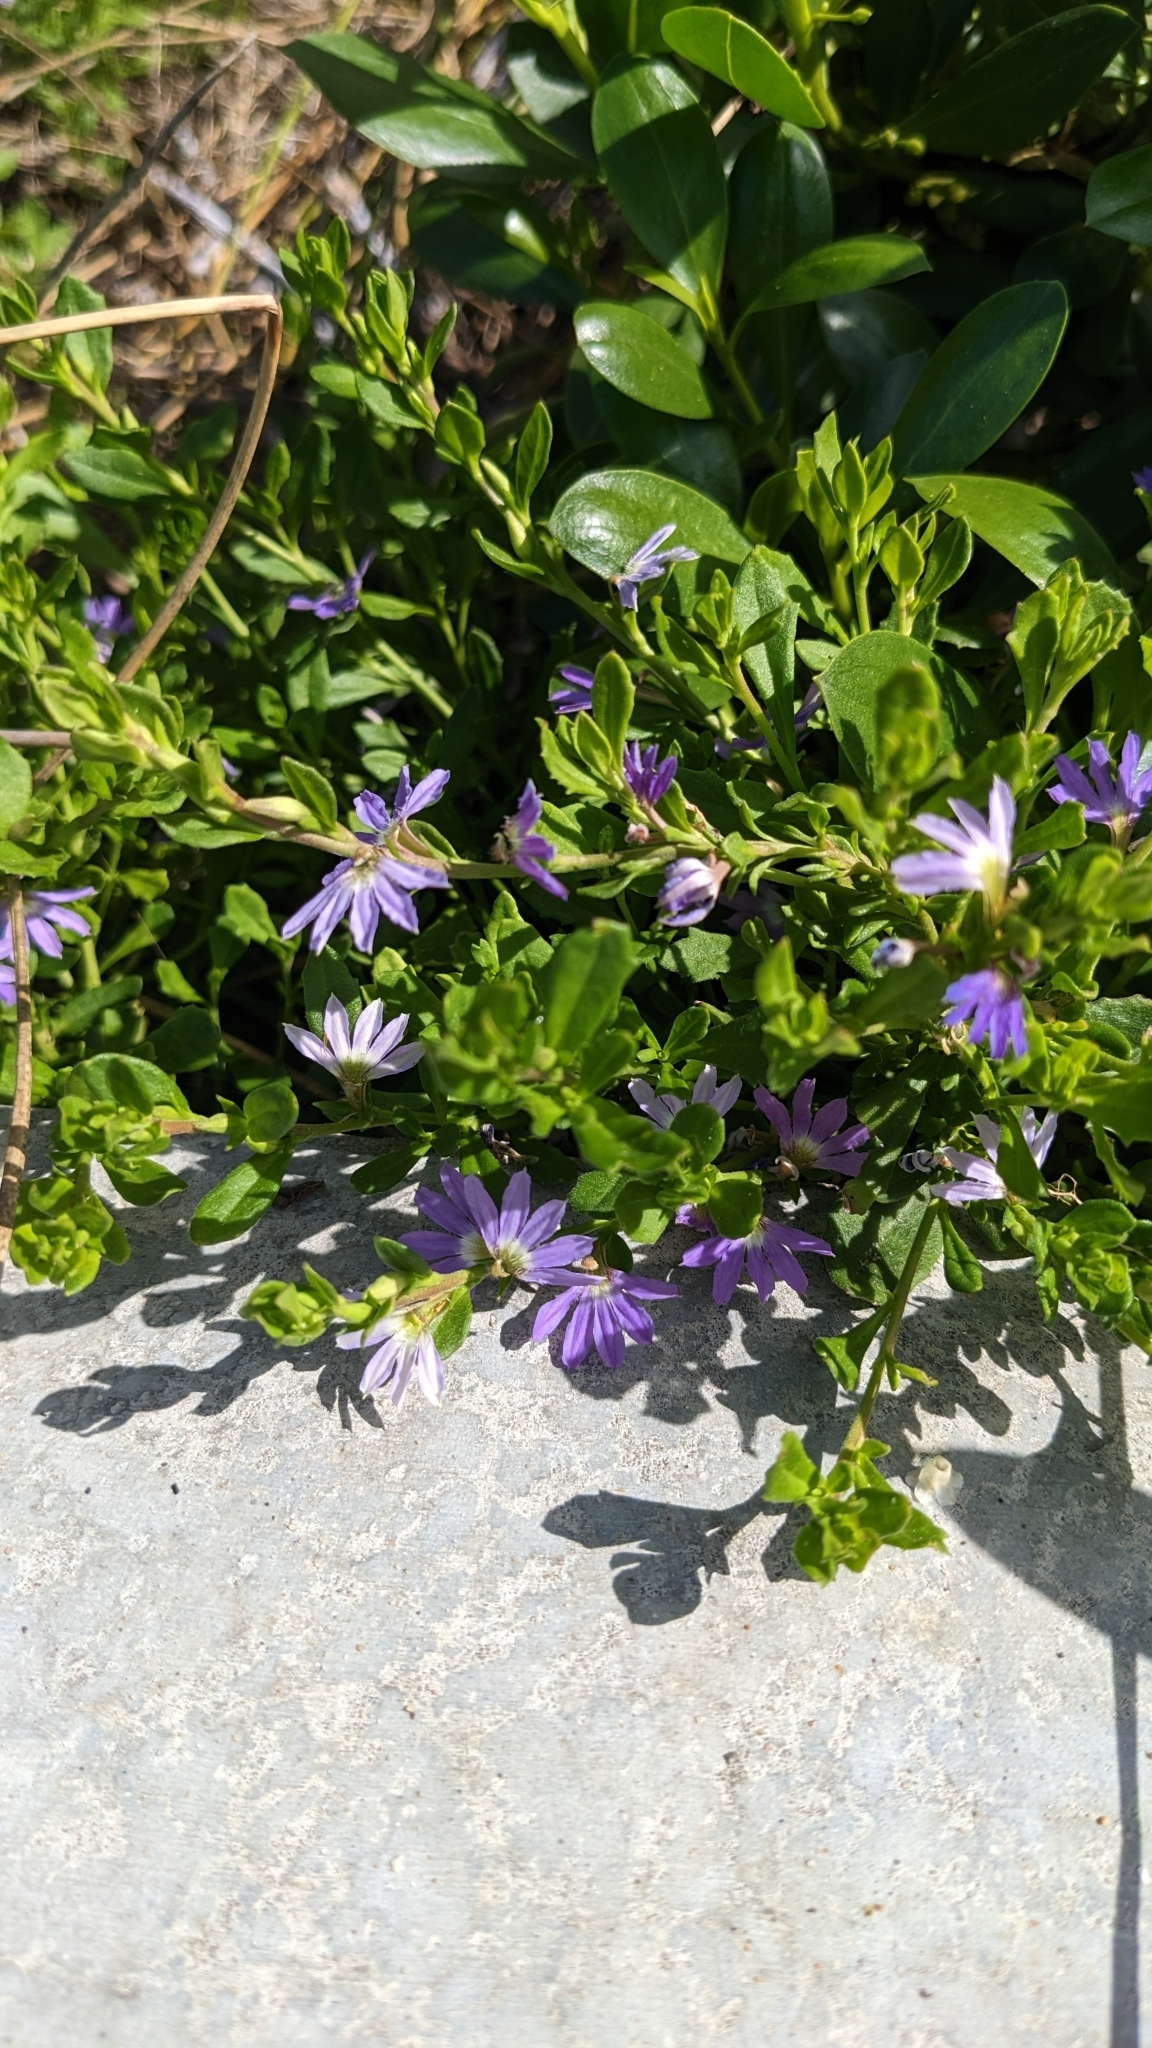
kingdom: Plantae
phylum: Tracheophyta
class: Magnoliopsida
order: Asterales
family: Goodeniaceae
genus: Scaevola
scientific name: Scaevola aemula
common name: Common fanflower
